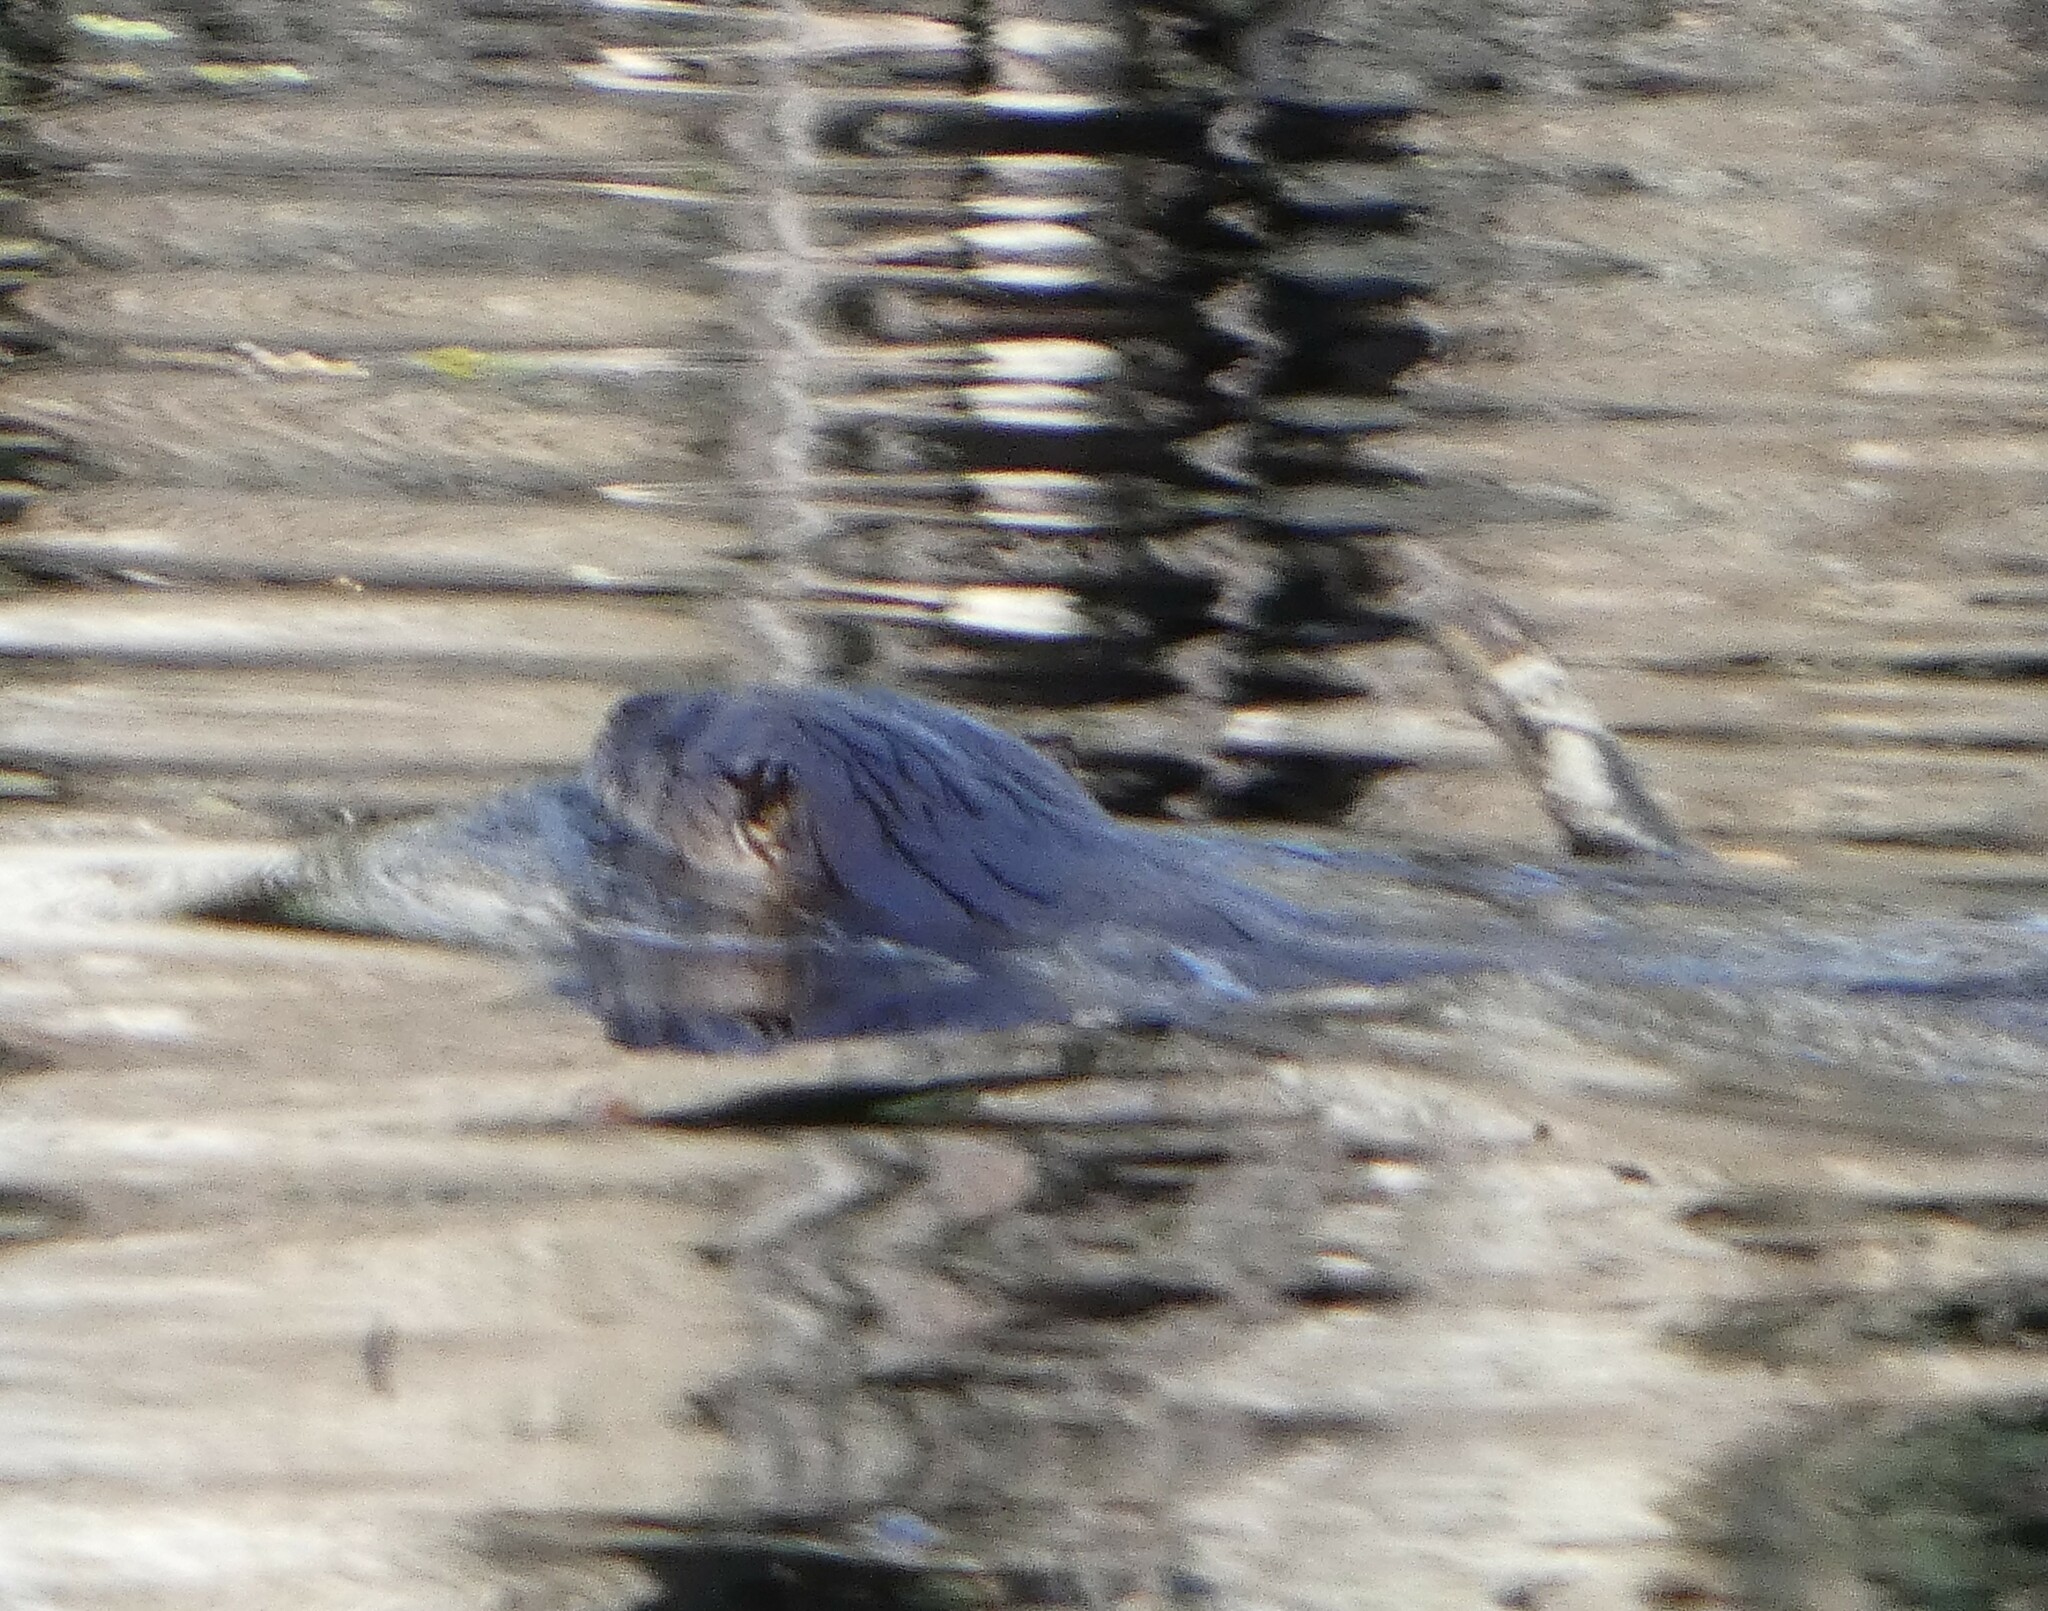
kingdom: Animalia
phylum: Chordata
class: Mammalia
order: Carnivora
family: Mustelidae
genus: Lontra
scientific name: Lontra canadensis
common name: North american river otter
